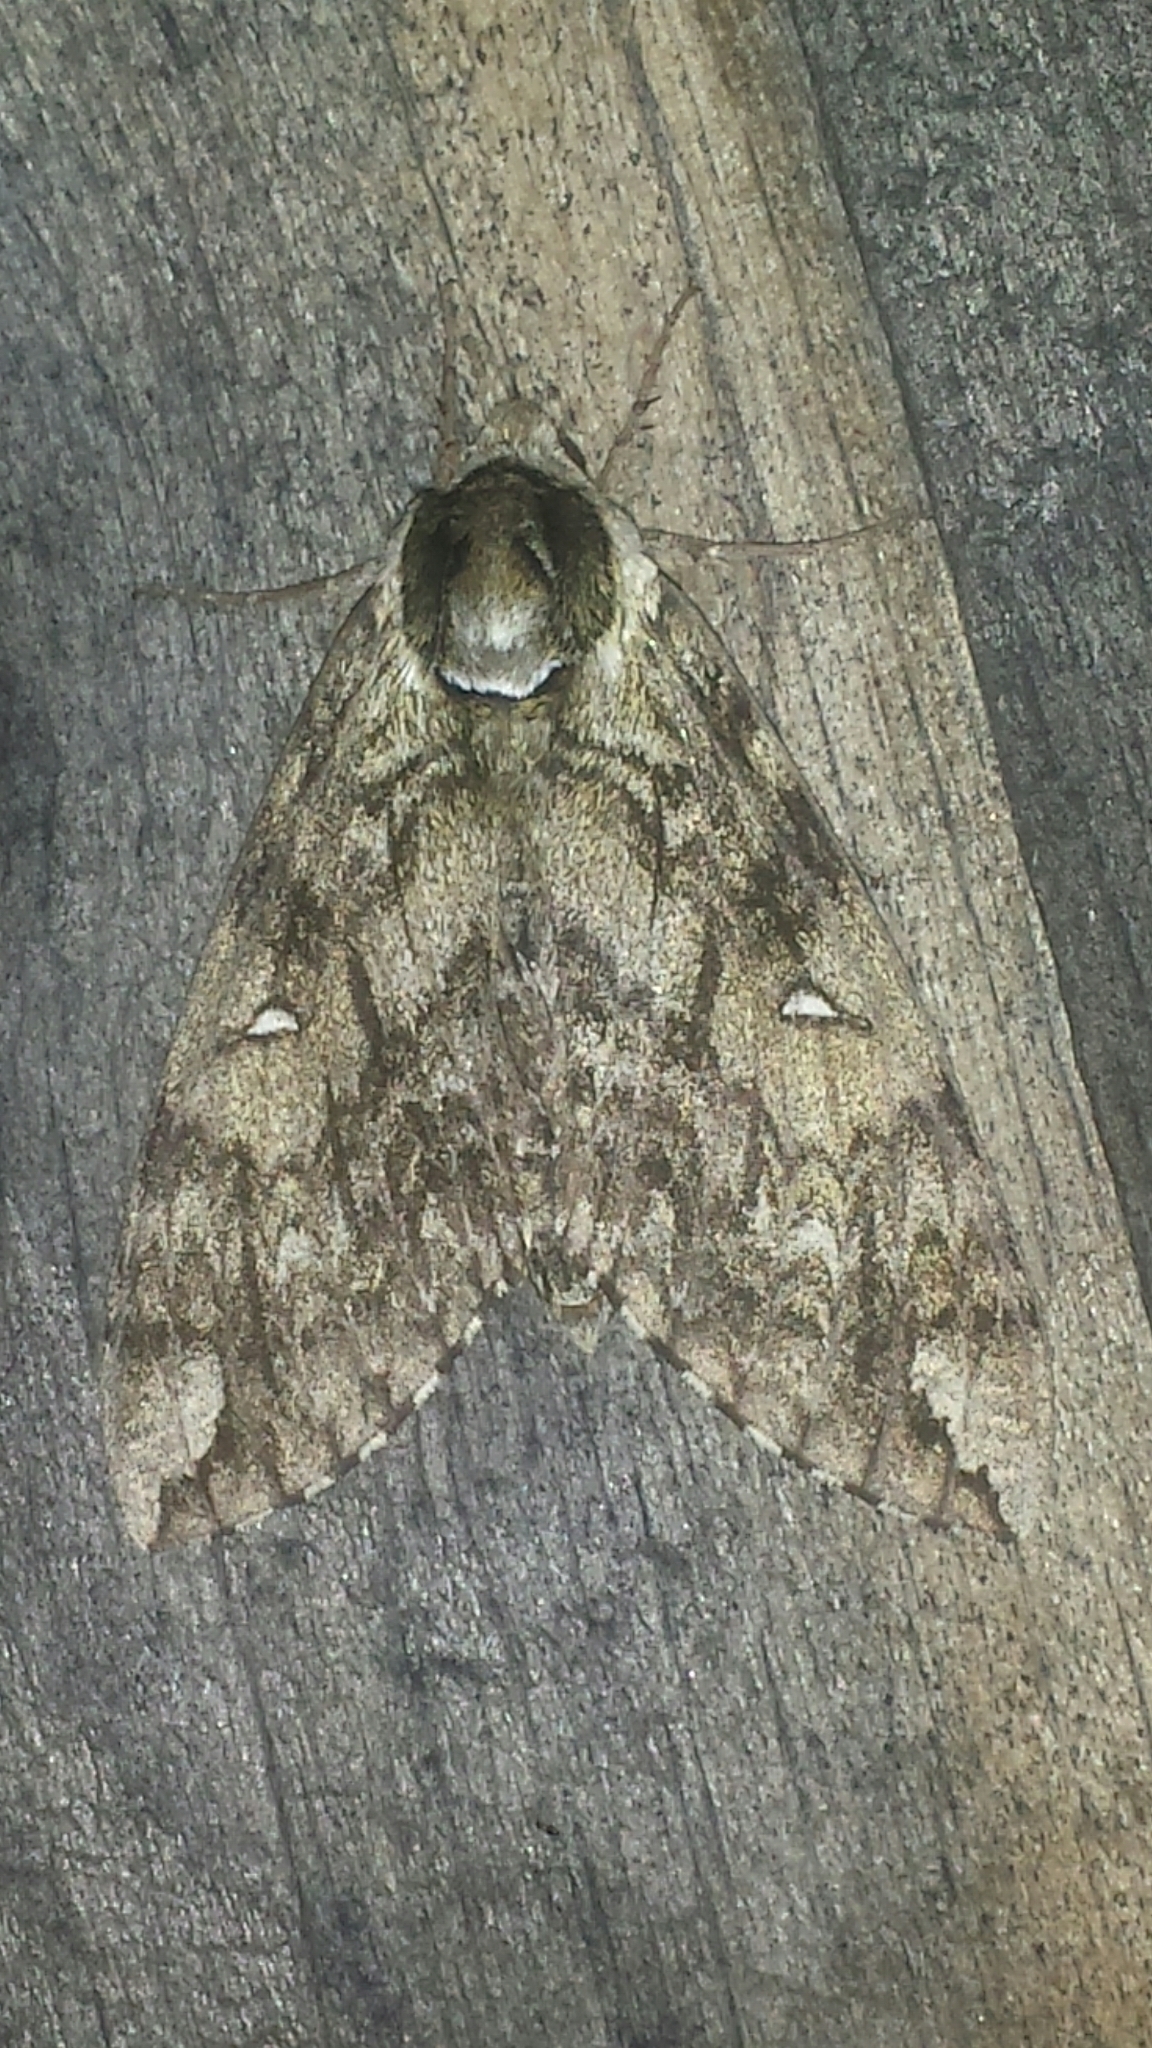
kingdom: Animalia
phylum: Arthropoda
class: Insecta
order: Lepidoptera
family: Sphingidae
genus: Ceratomia
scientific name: Ceratomia undulosa
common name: Waved sphinx
